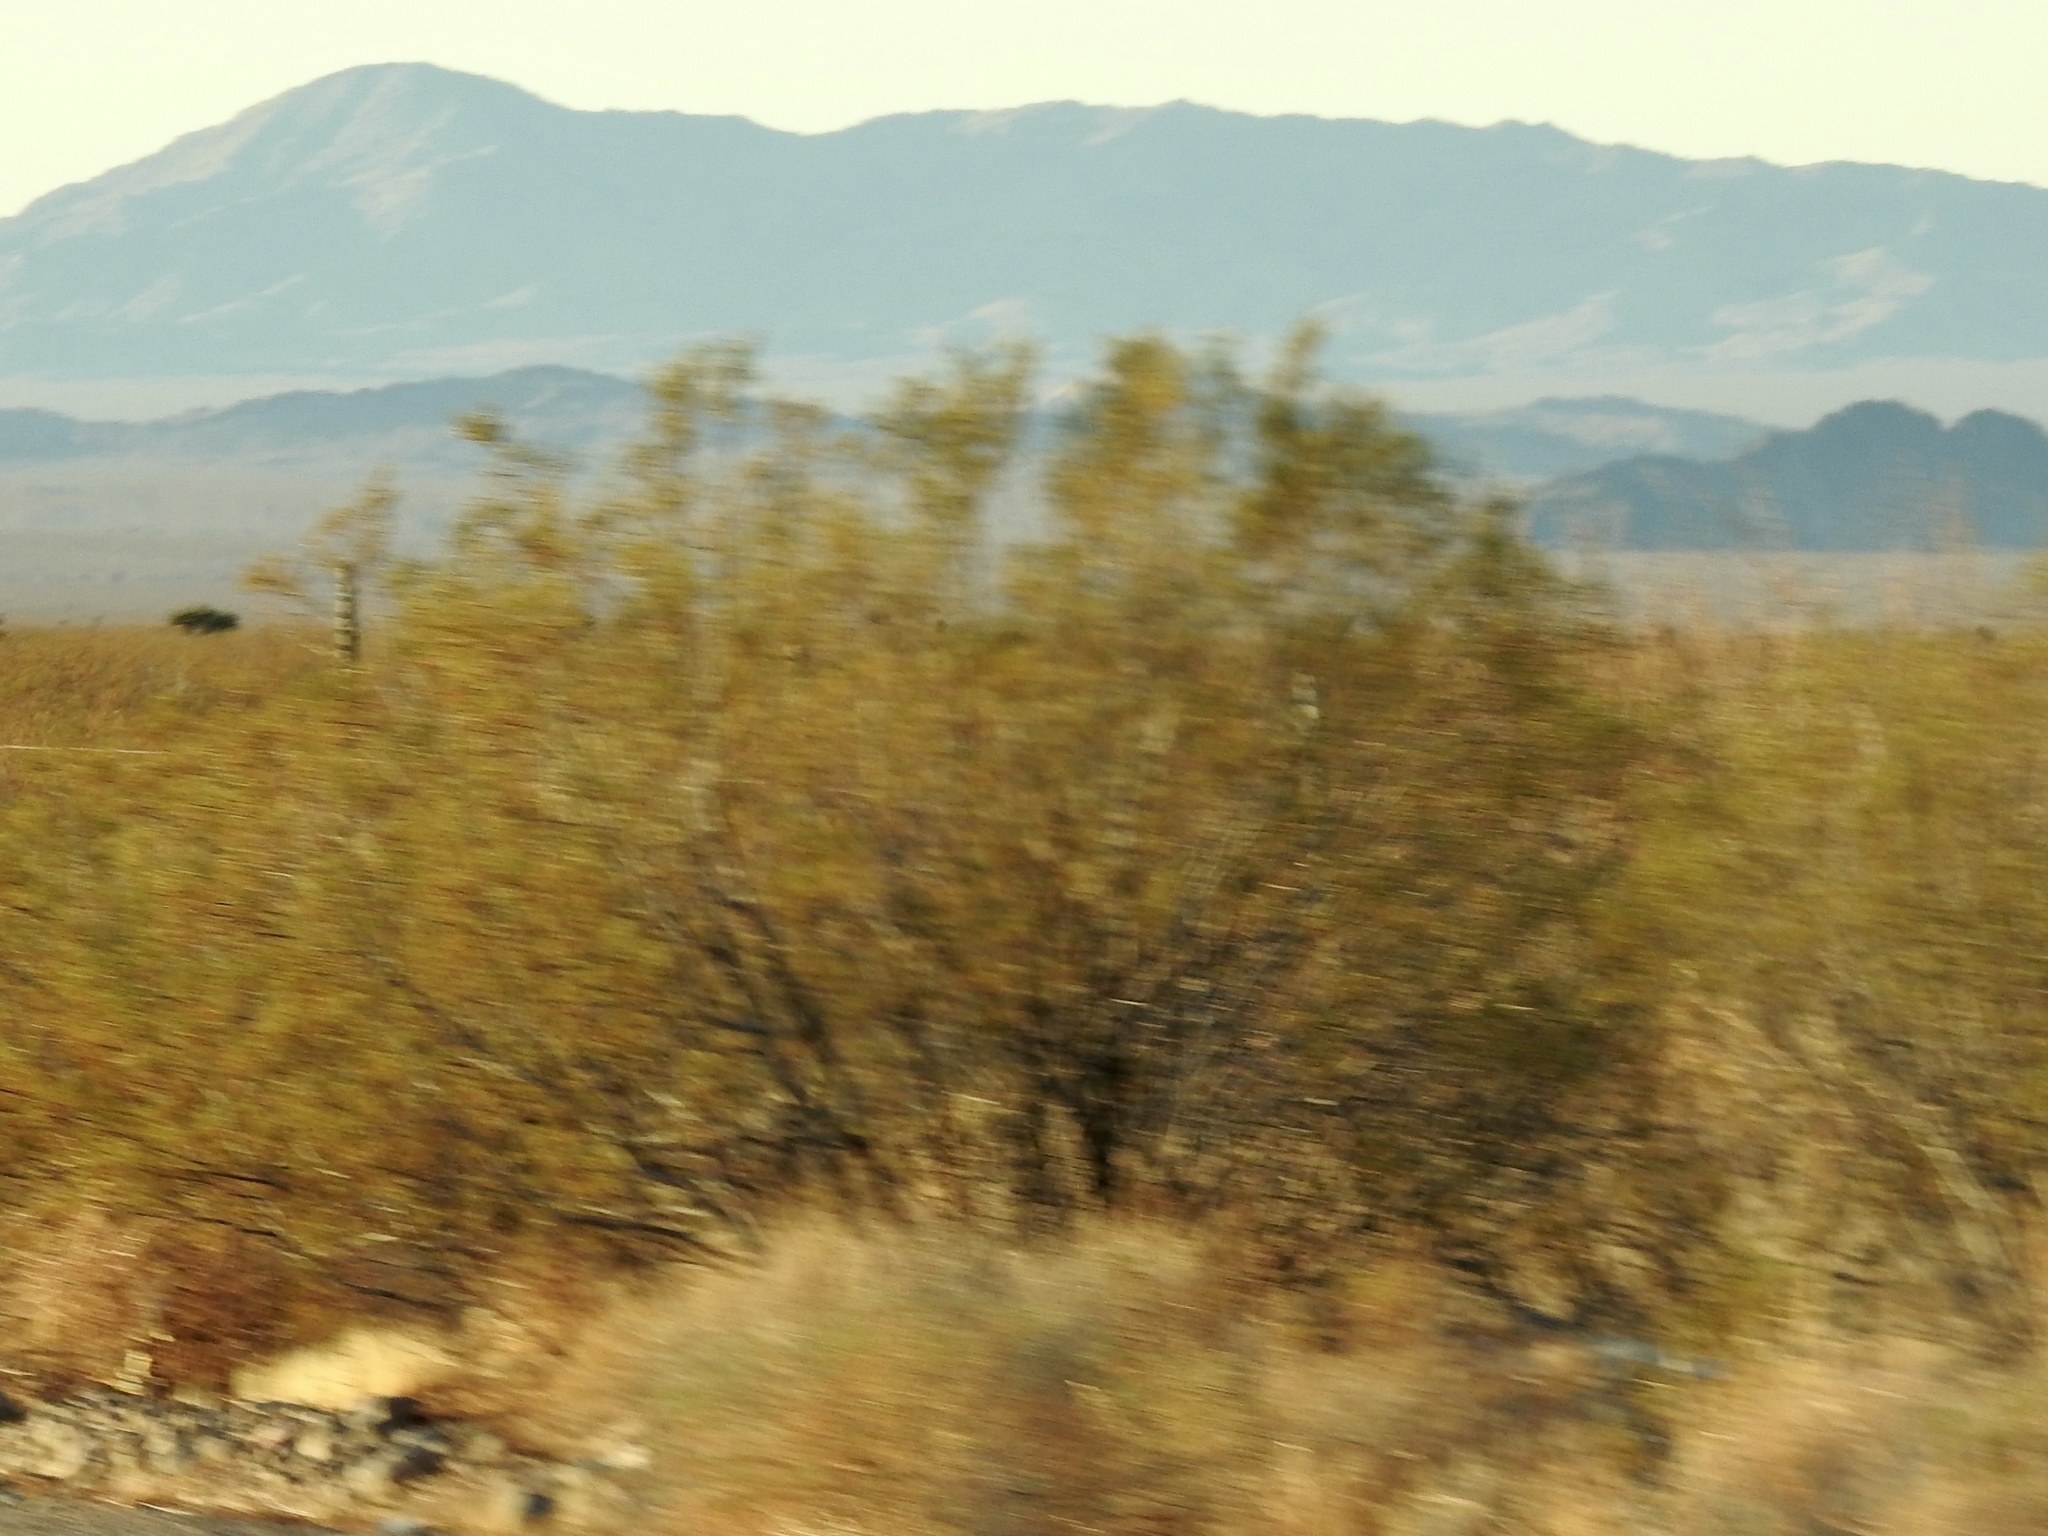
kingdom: Plantae
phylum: Tracheophyta
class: Magnoliopsida
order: Zygophyllales
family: Zygophyllaceae
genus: Larrea
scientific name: Larrea tridentata
